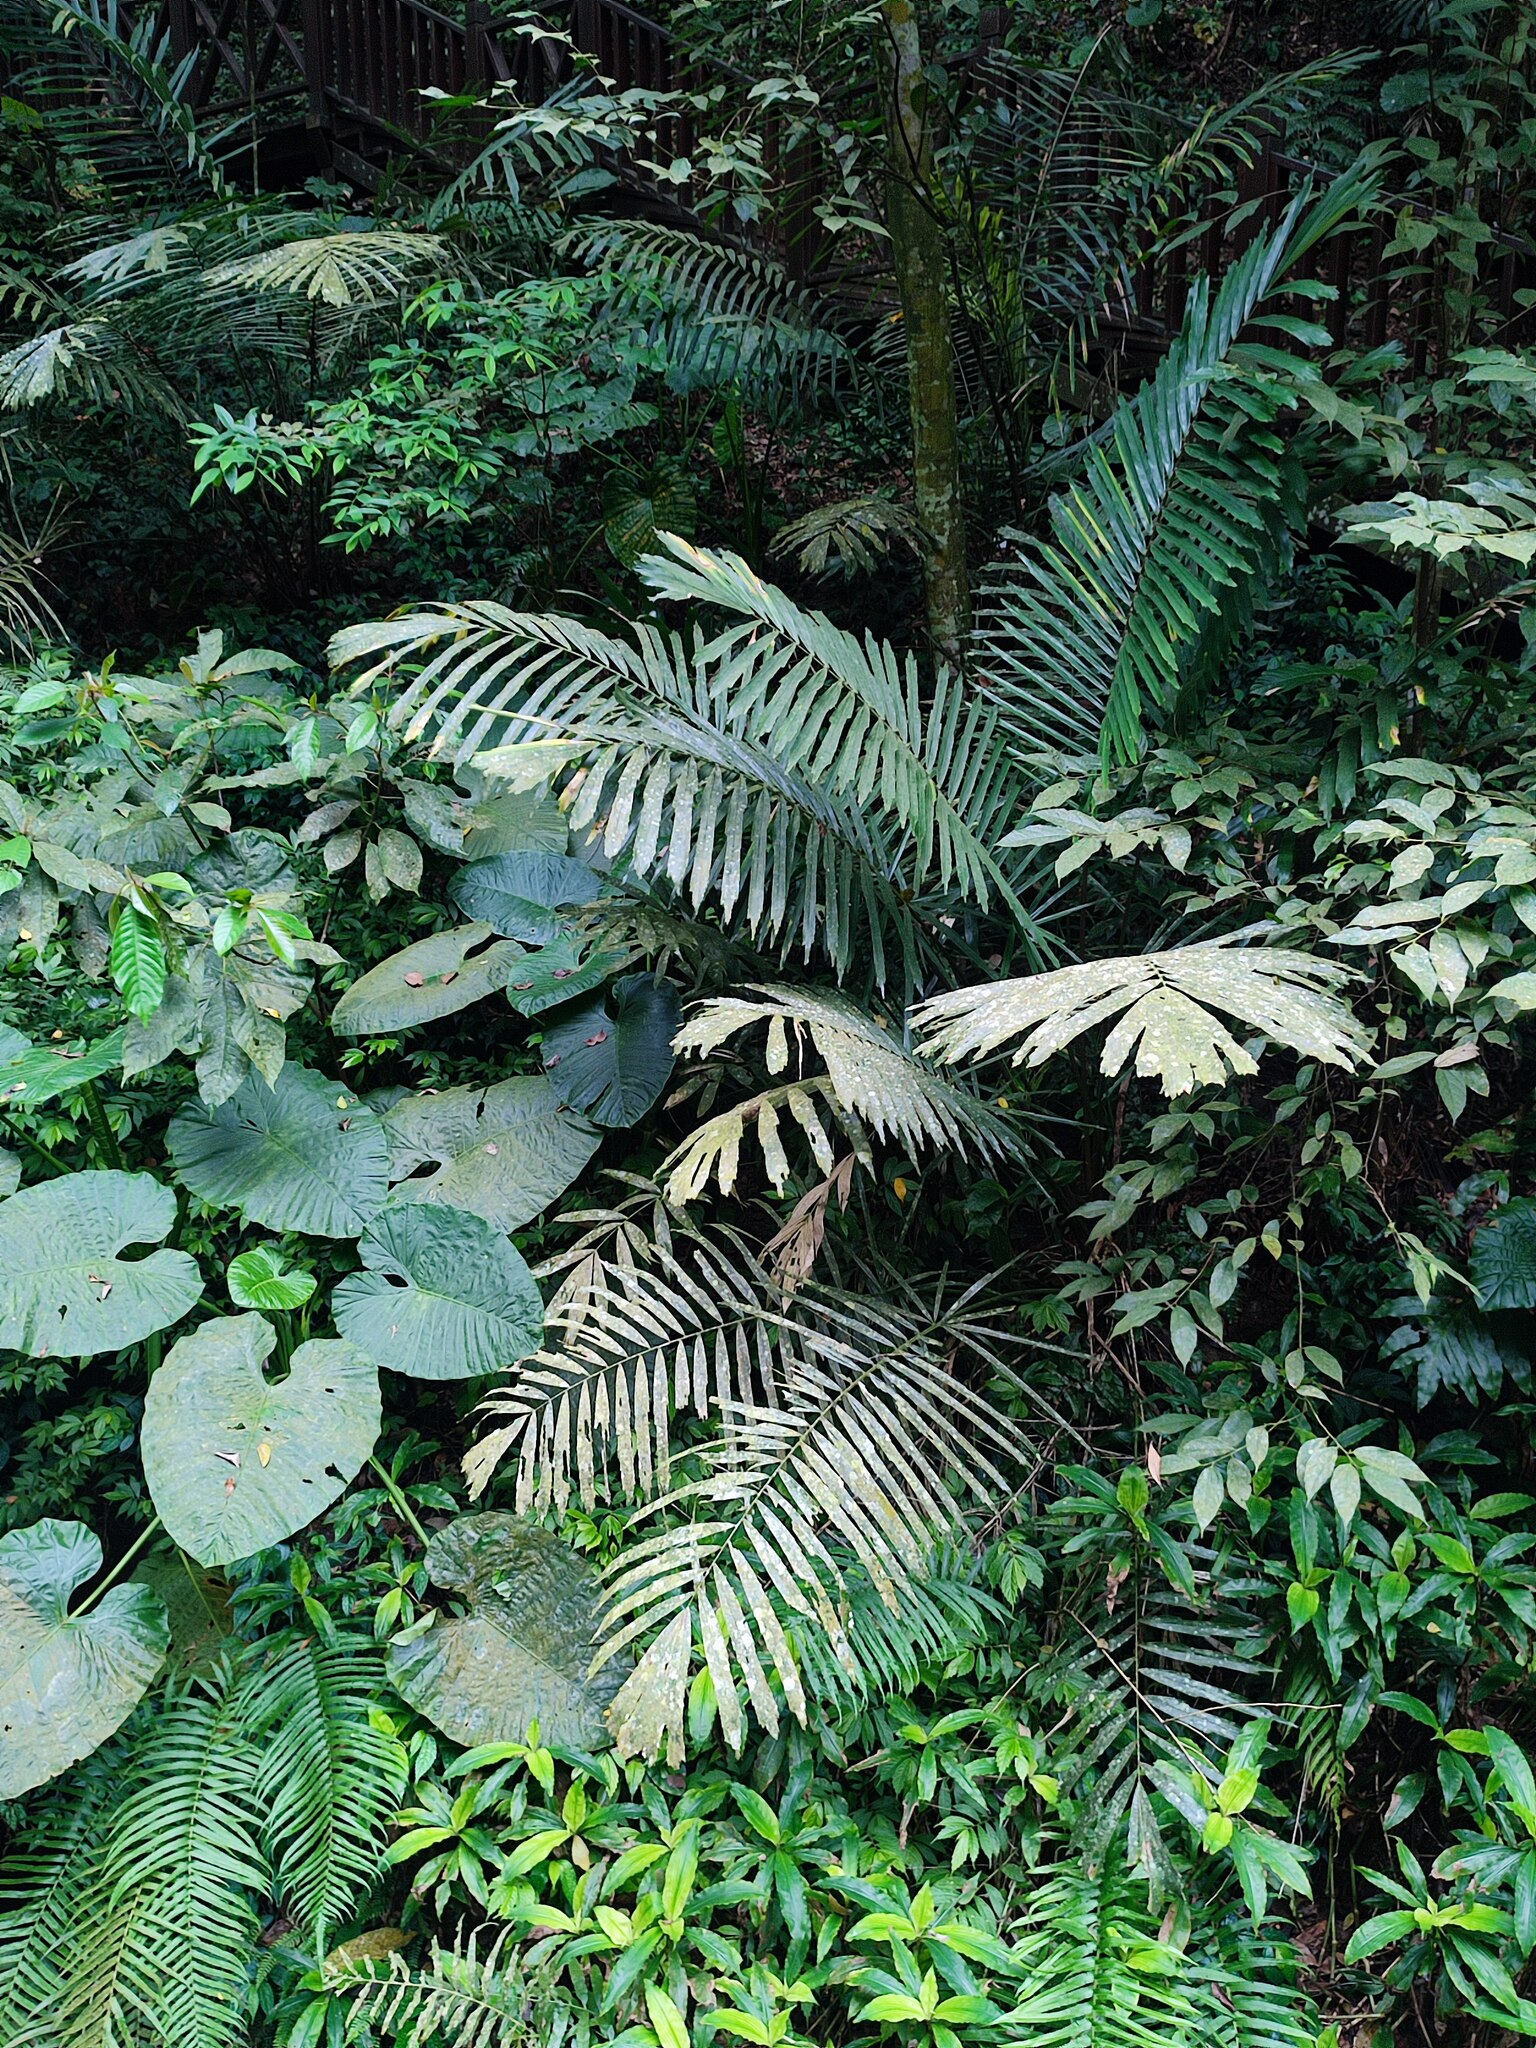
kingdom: Plantae
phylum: Tracheophyta
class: Liliopsida
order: Arecales
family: Arecaceae
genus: Arenga
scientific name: Arenga engleri
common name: Formosan sugar palm
